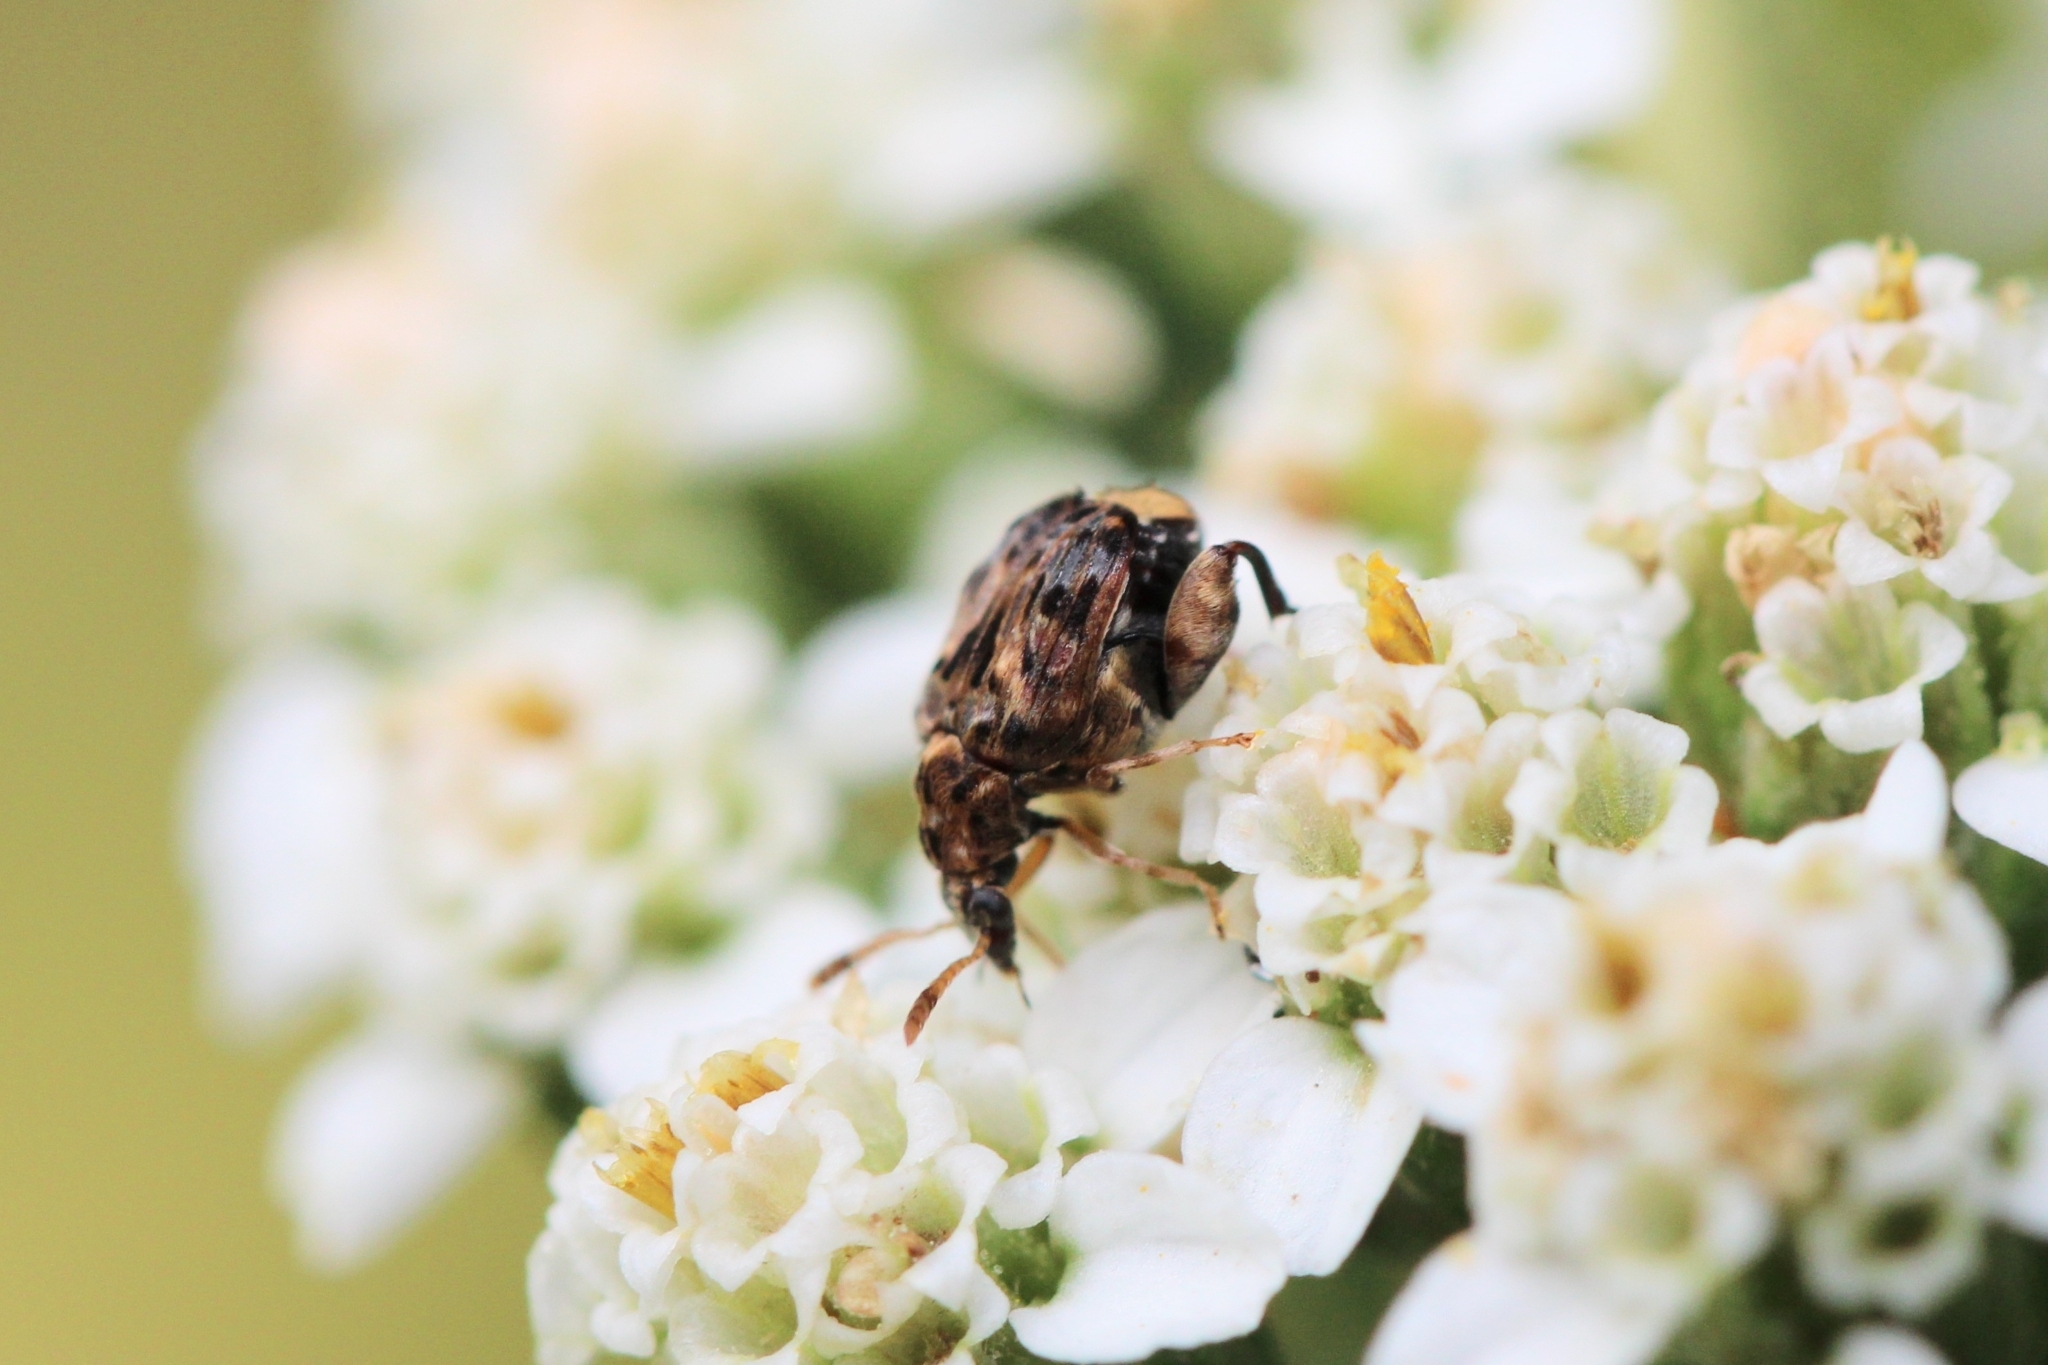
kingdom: Animalia
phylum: Arthropoda
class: Insecta
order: Coleoptera
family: Chrysomelidae
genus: Gibbobruchus
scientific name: Gibbobruchus mimus
